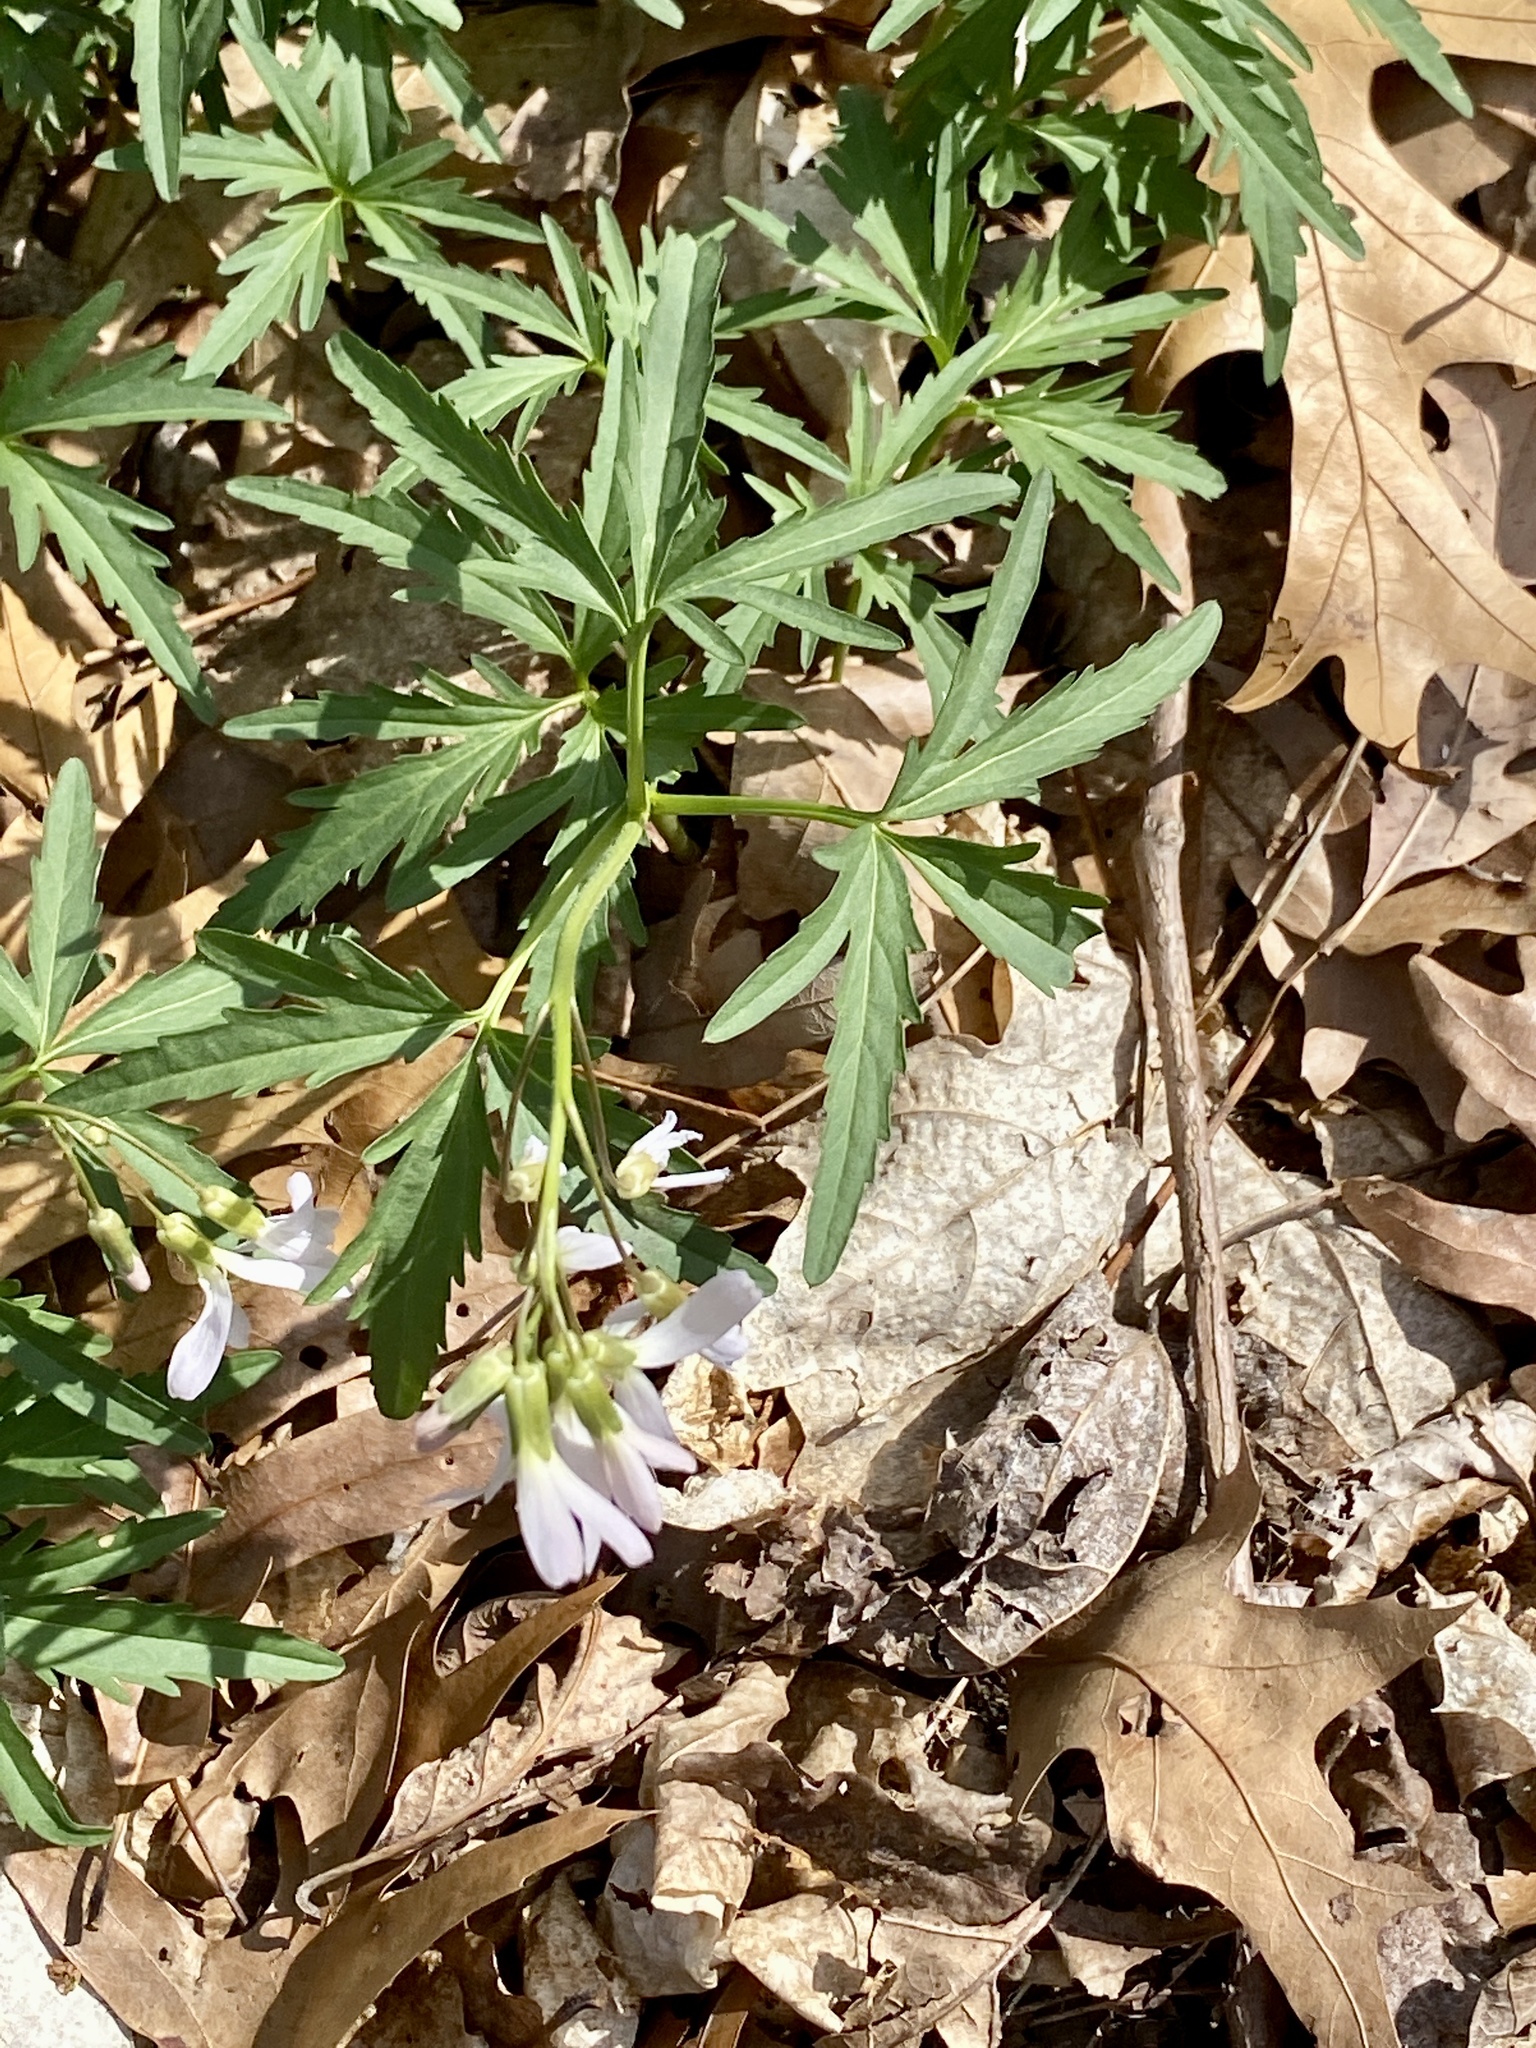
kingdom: Plantae
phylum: Tracheophyta
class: Magnoliopsida
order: Brassicales
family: Brassicaceae
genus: Cardamine
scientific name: Cardamine concatenata
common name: Cut-leaf toothcup
